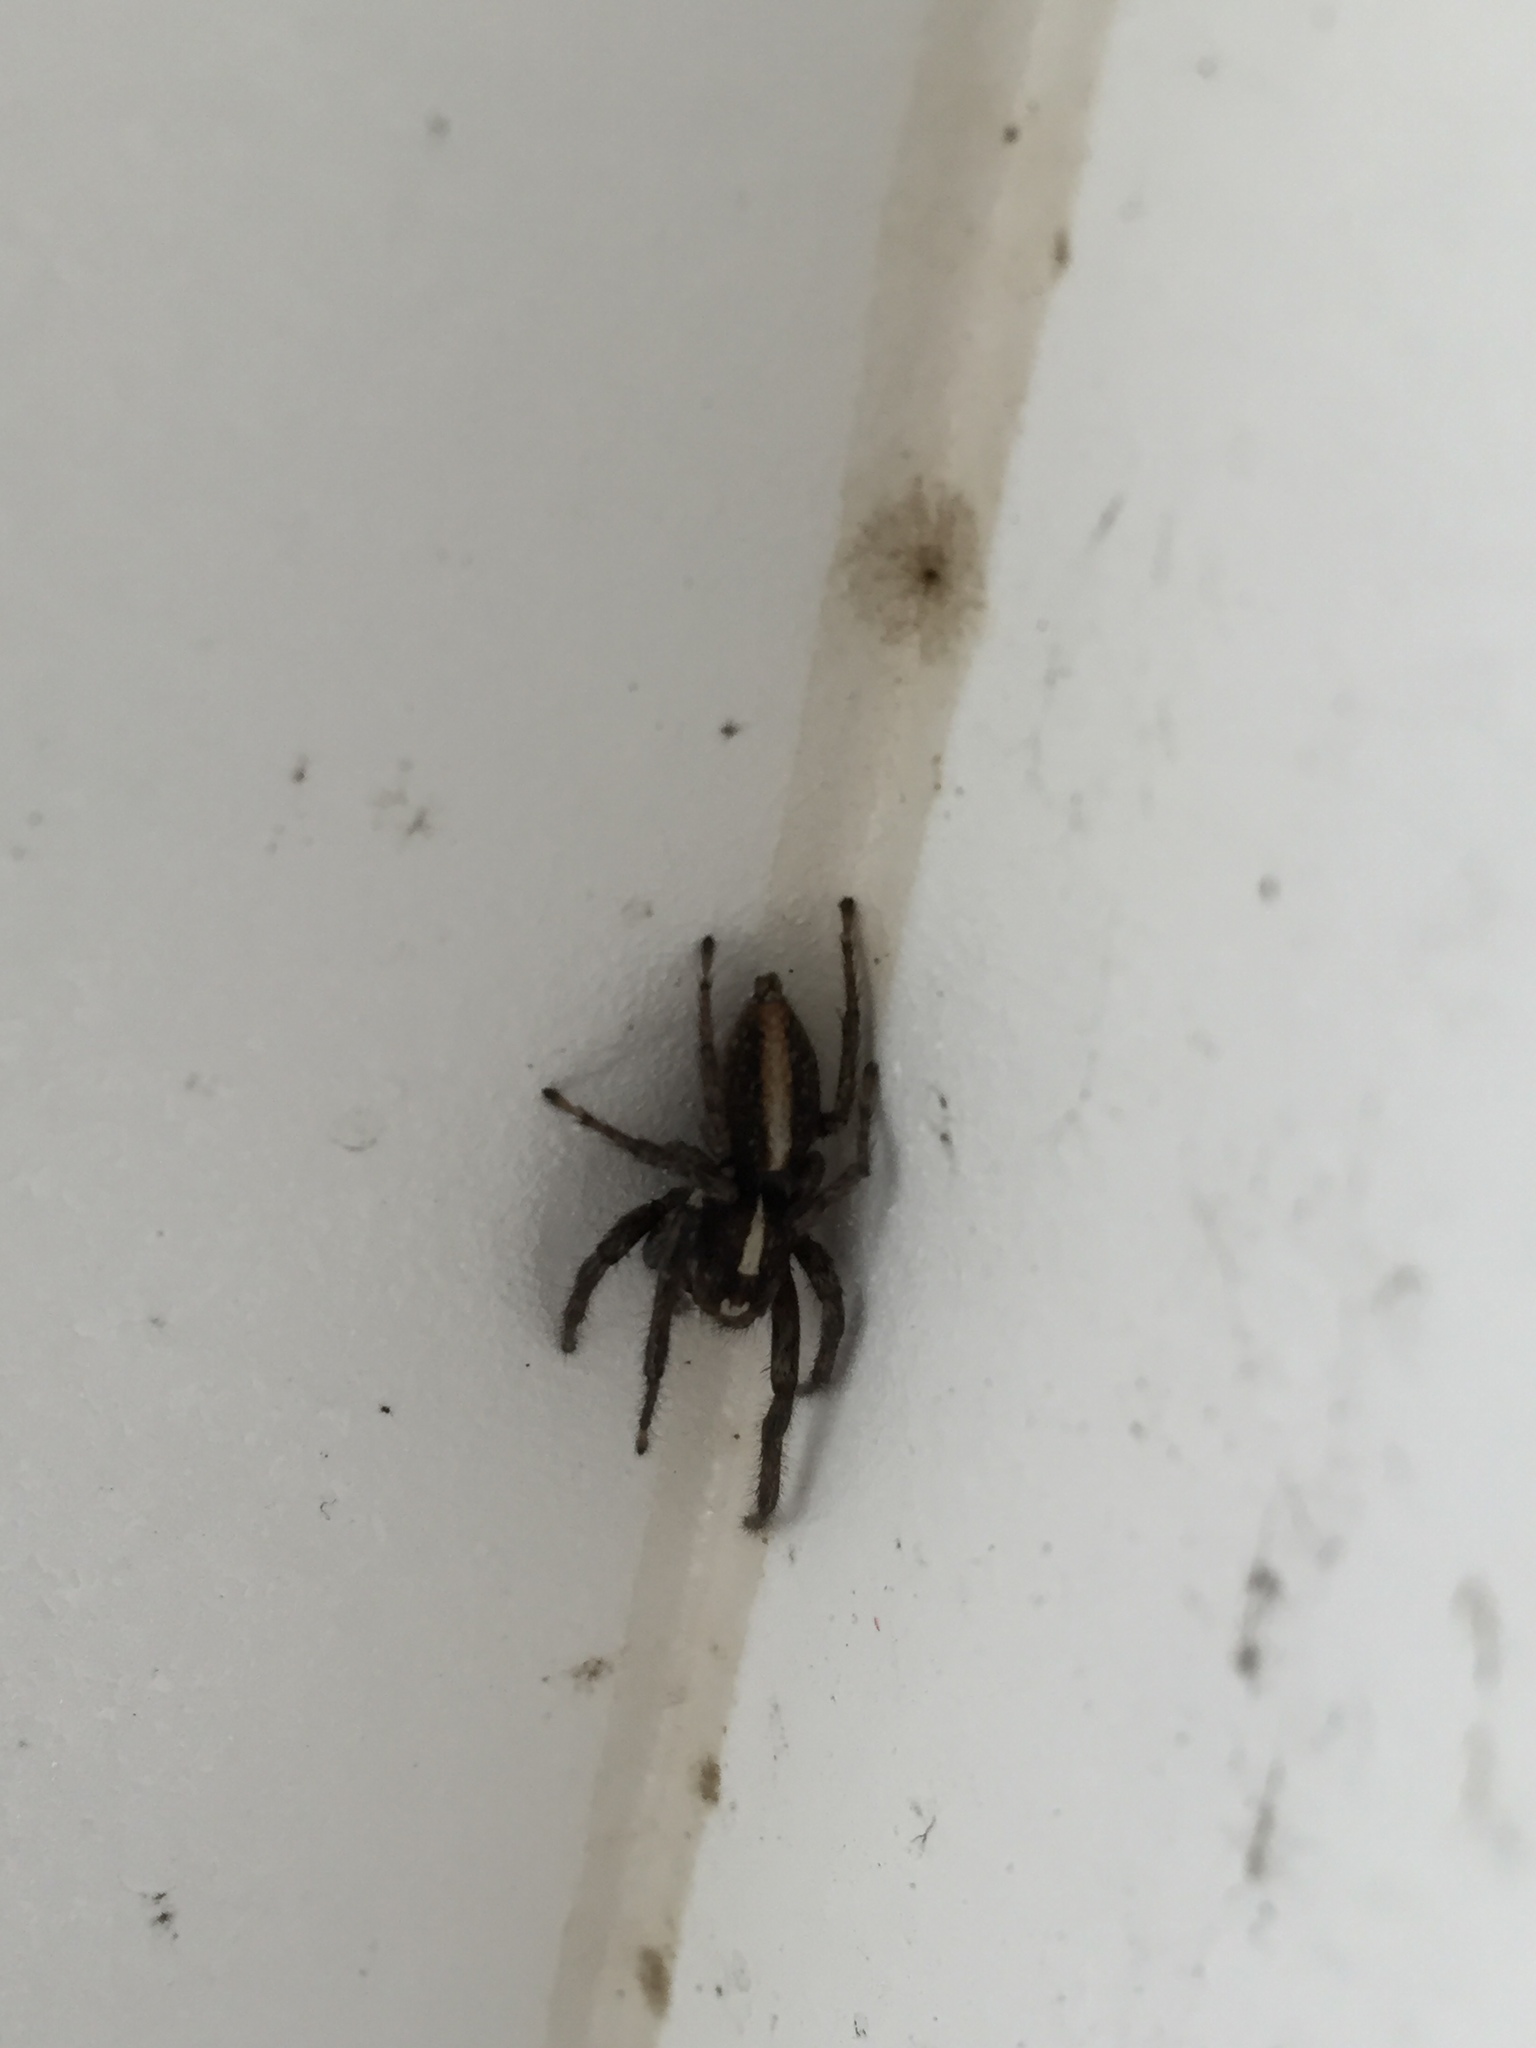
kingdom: Animalia
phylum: Arthropoda
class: Arachnida
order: Araneae
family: Salticidae
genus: Frigga
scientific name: Frigga crocuta
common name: Jumping spiders
